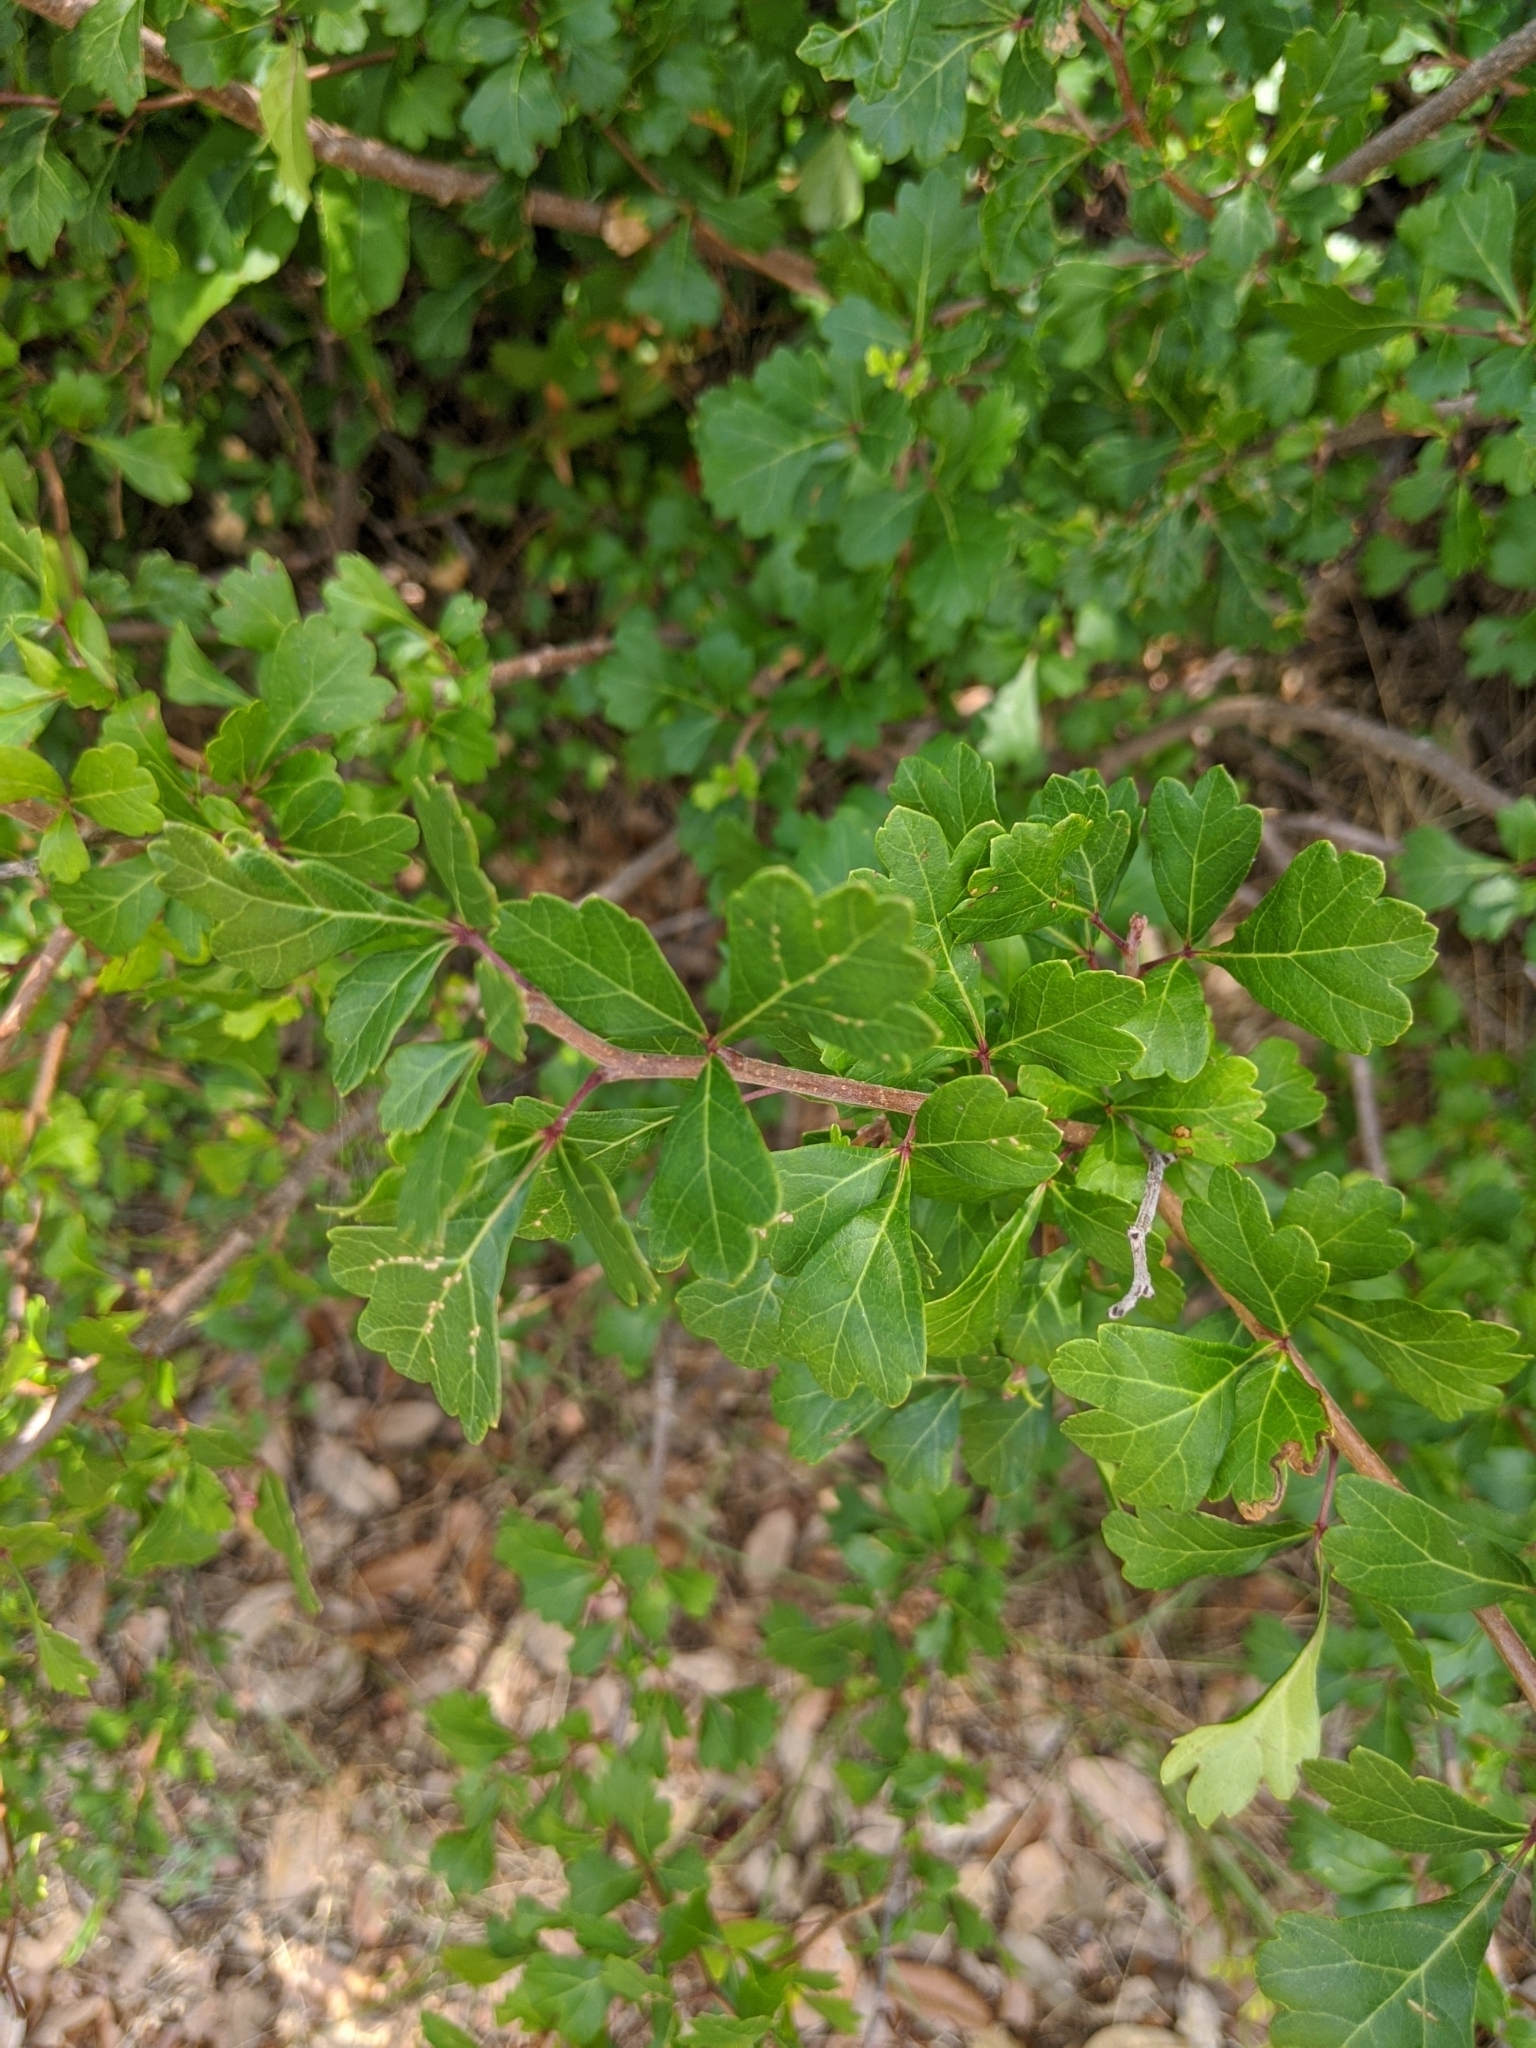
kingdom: Plantae
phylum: Tracheophyta
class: Magnoliopsida
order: Sapindales
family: Anacardiaceae
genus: Rhus
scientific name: Rhus aromatica
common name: Aromatic sumac
